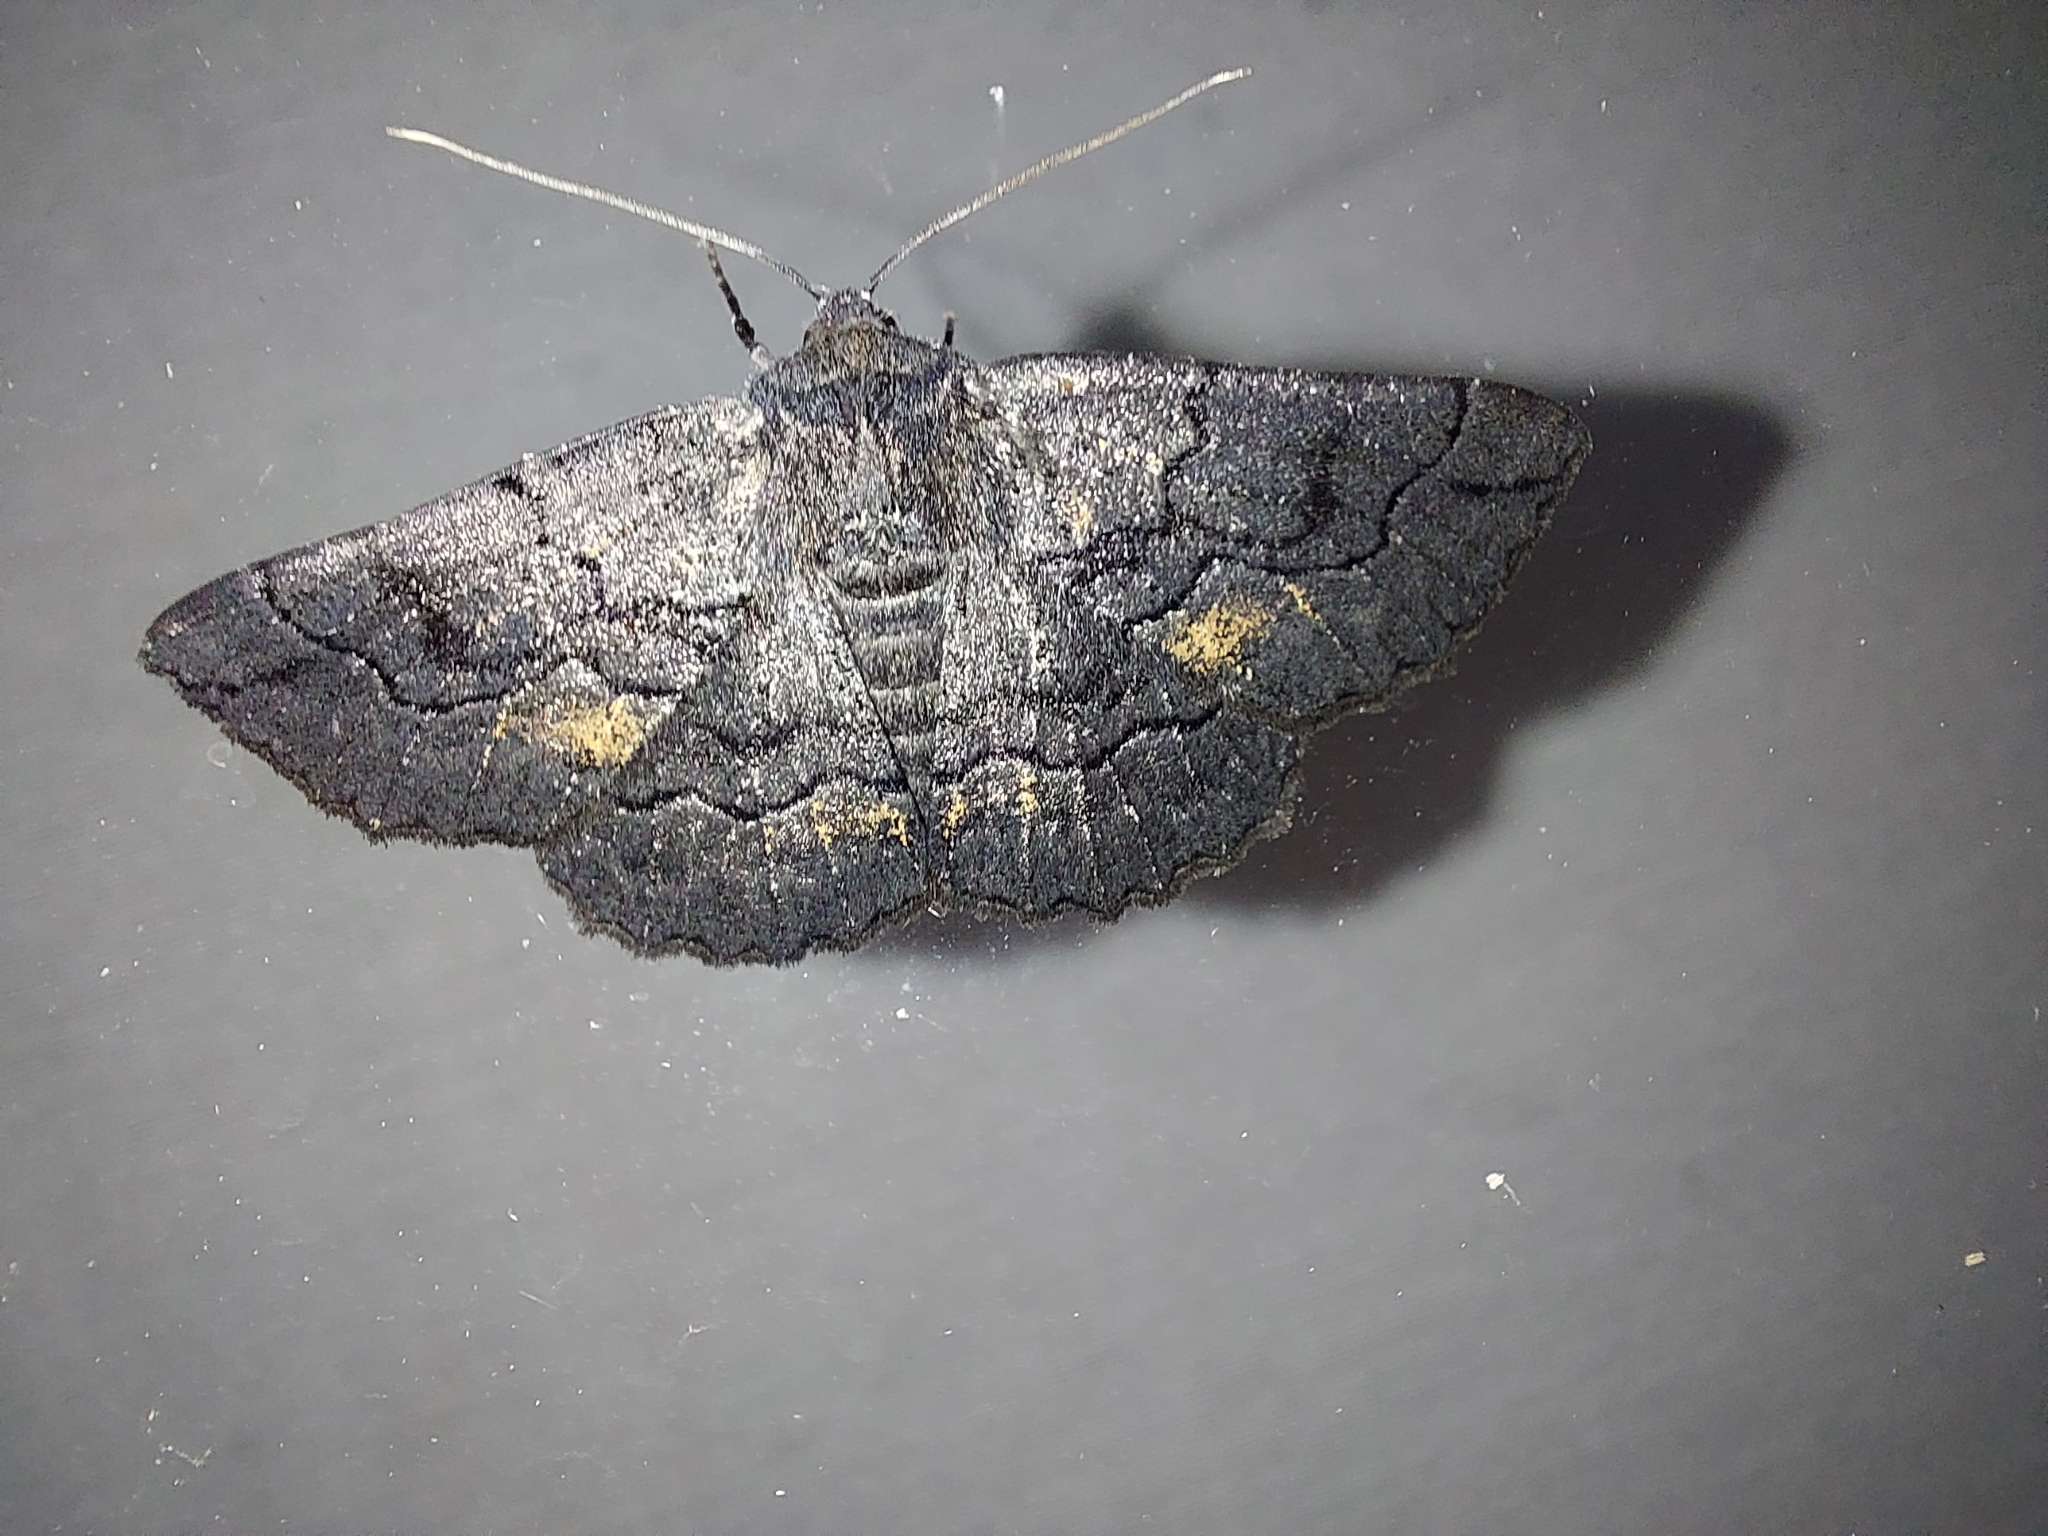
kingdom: Animalia
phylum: Arthropoda
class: Insecta
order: Lepidoptera
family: Geometridae
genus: Melanodes
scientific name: Melanodes anthracitaria
